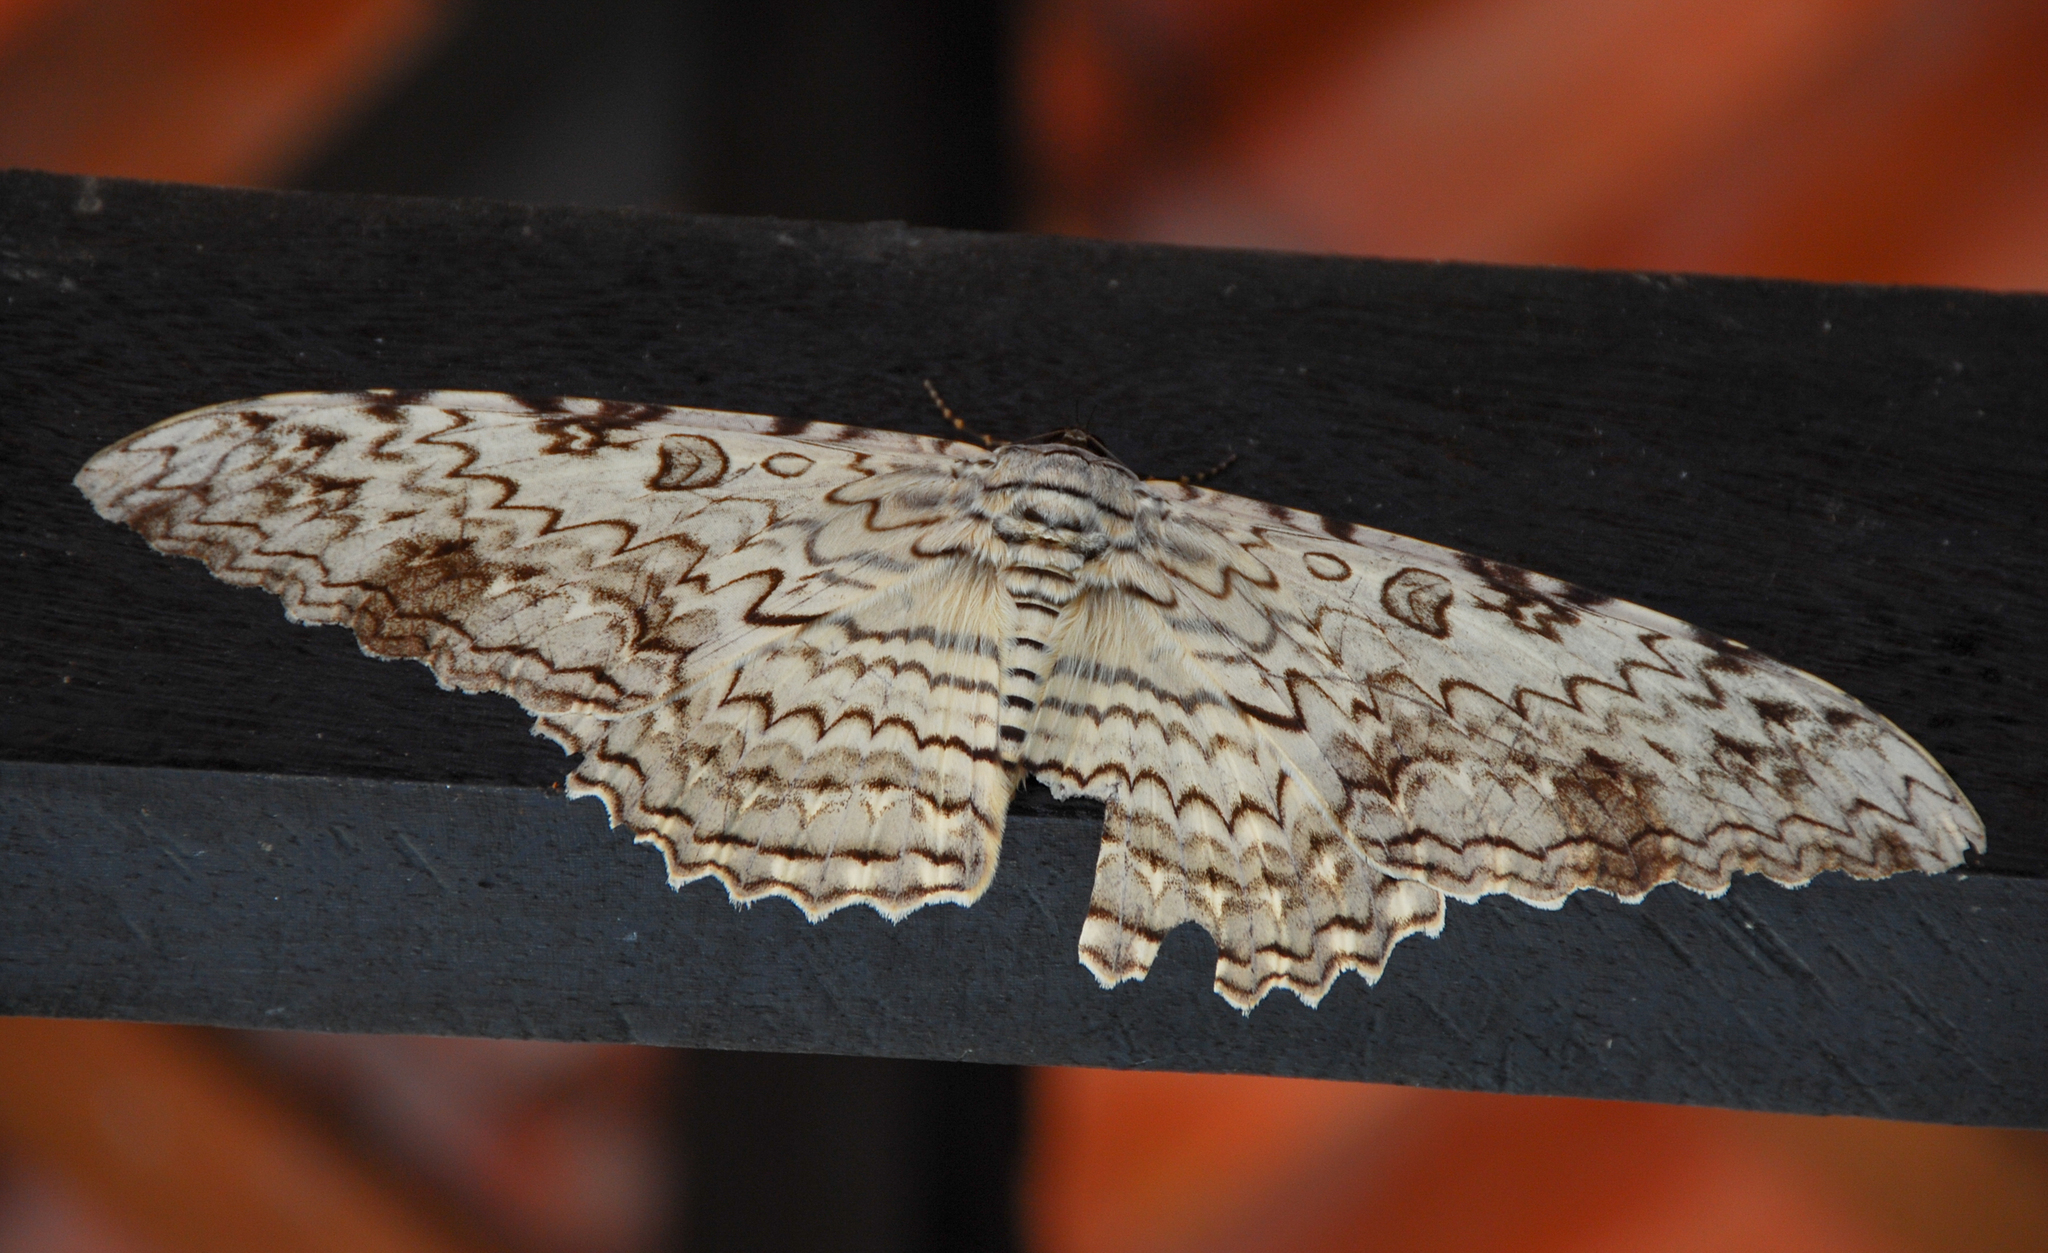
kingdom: Animalia
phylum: Arthropoda
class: Insecta
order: Lepidoptera
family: Erebidae
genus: Thysania
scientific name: Thysania agrippina
